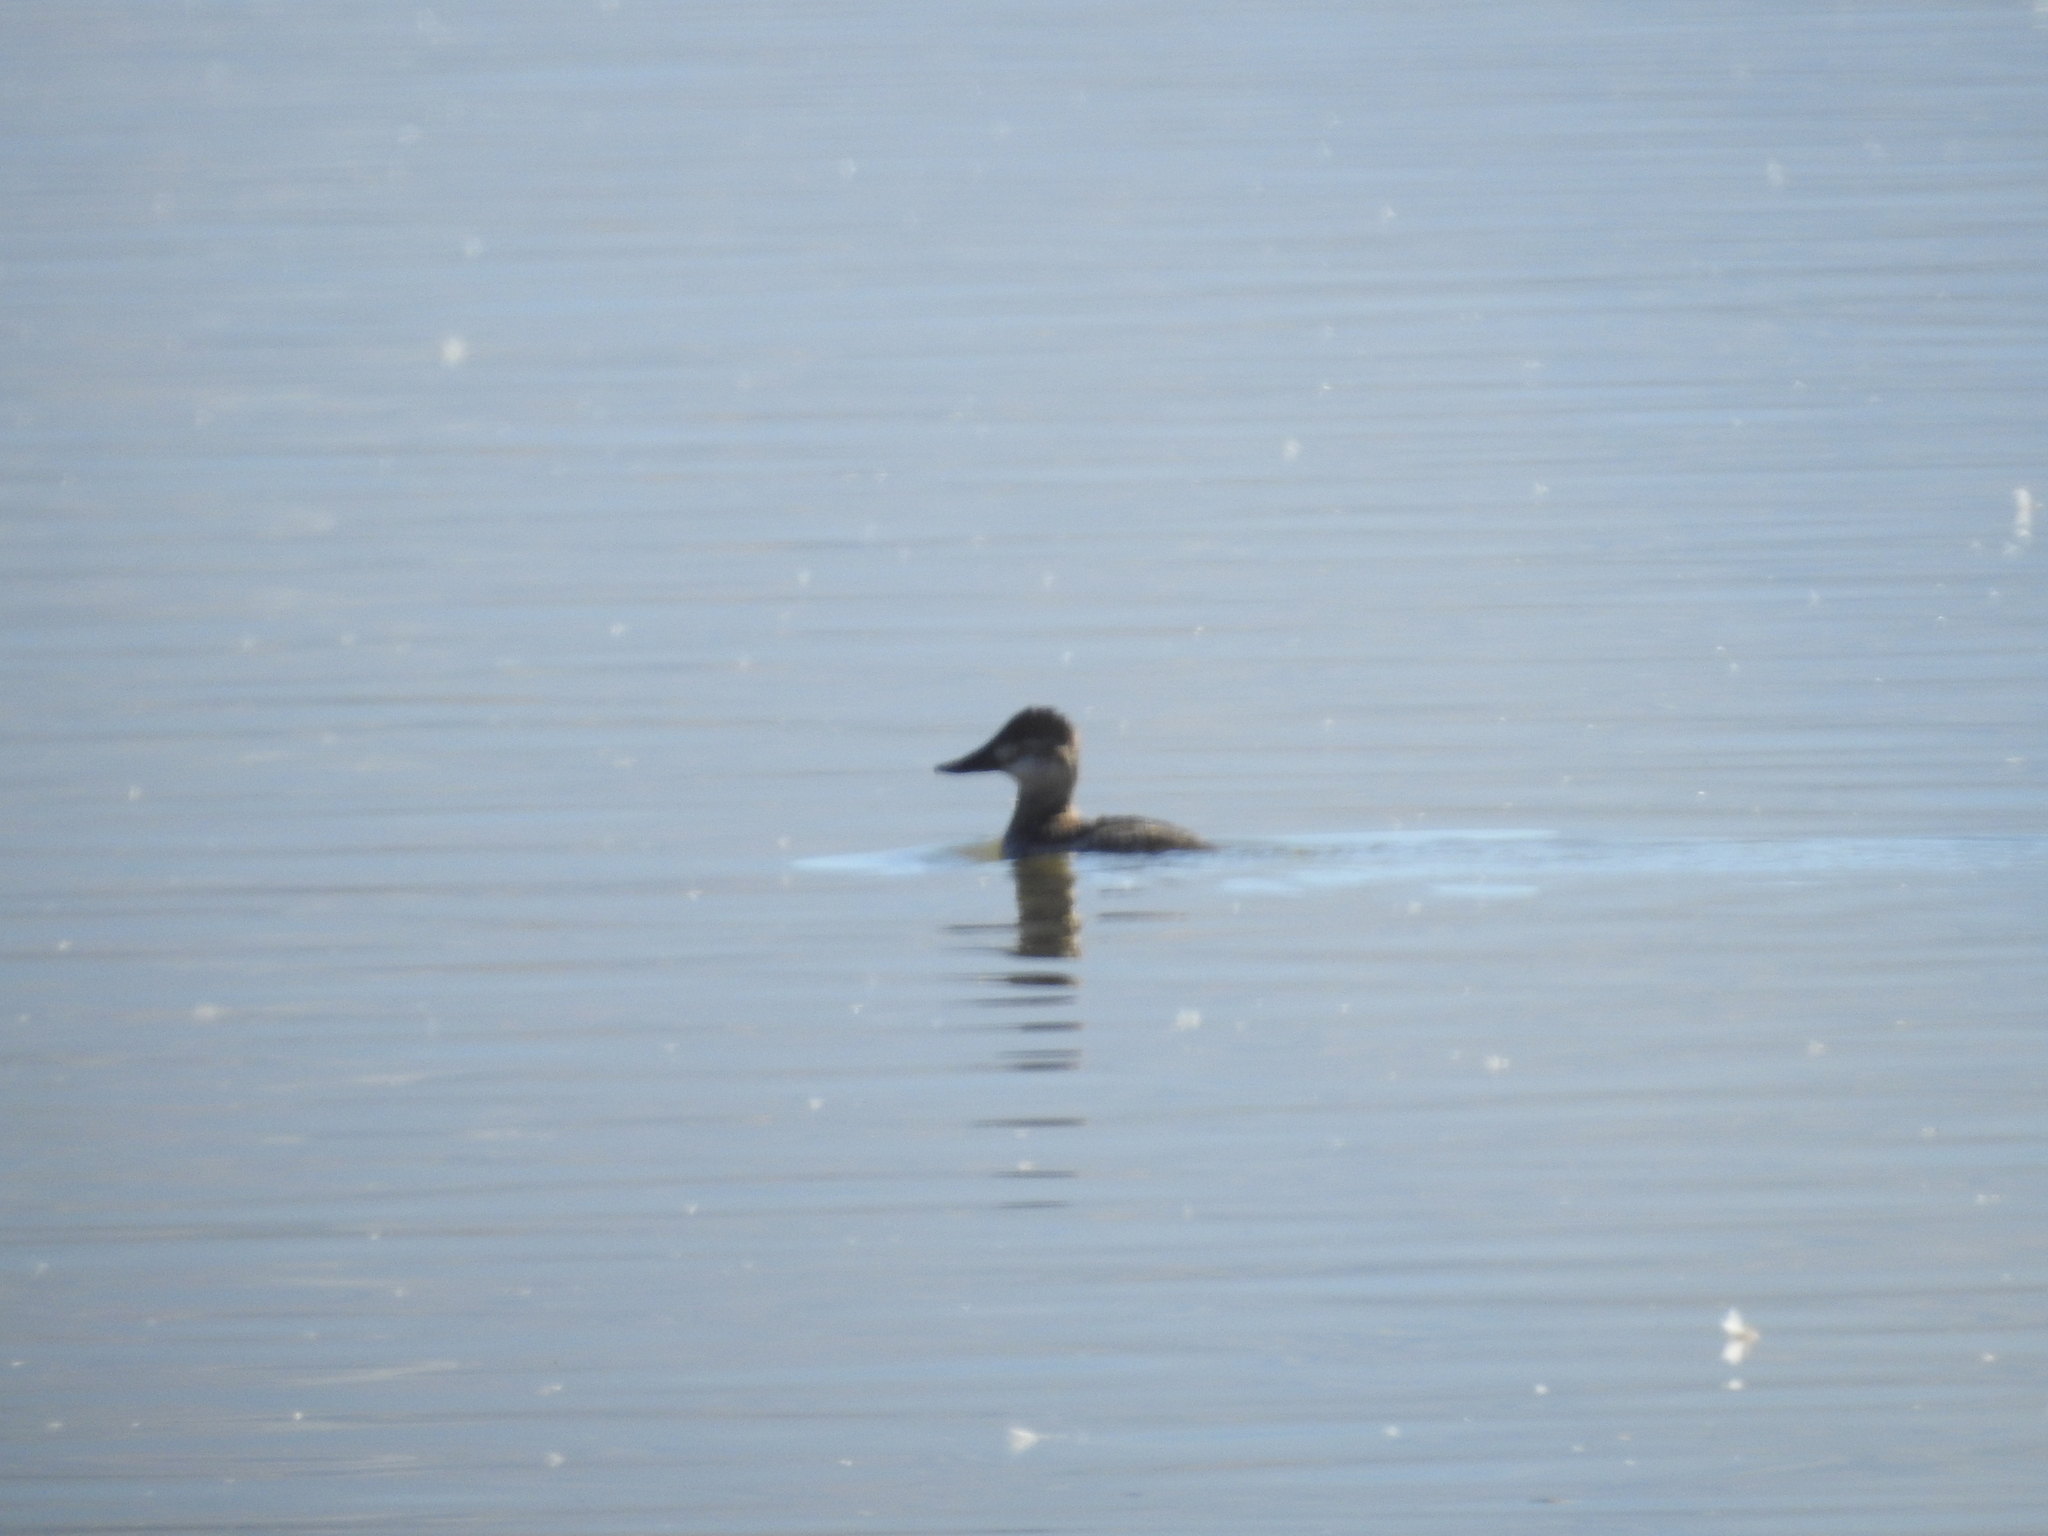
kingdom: Animalia
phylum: Chordata
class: Aves
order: Anseriformes
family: Anatidae
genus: Oxyura
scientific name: Oxyura jamaicensis
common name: Ruddy duck
